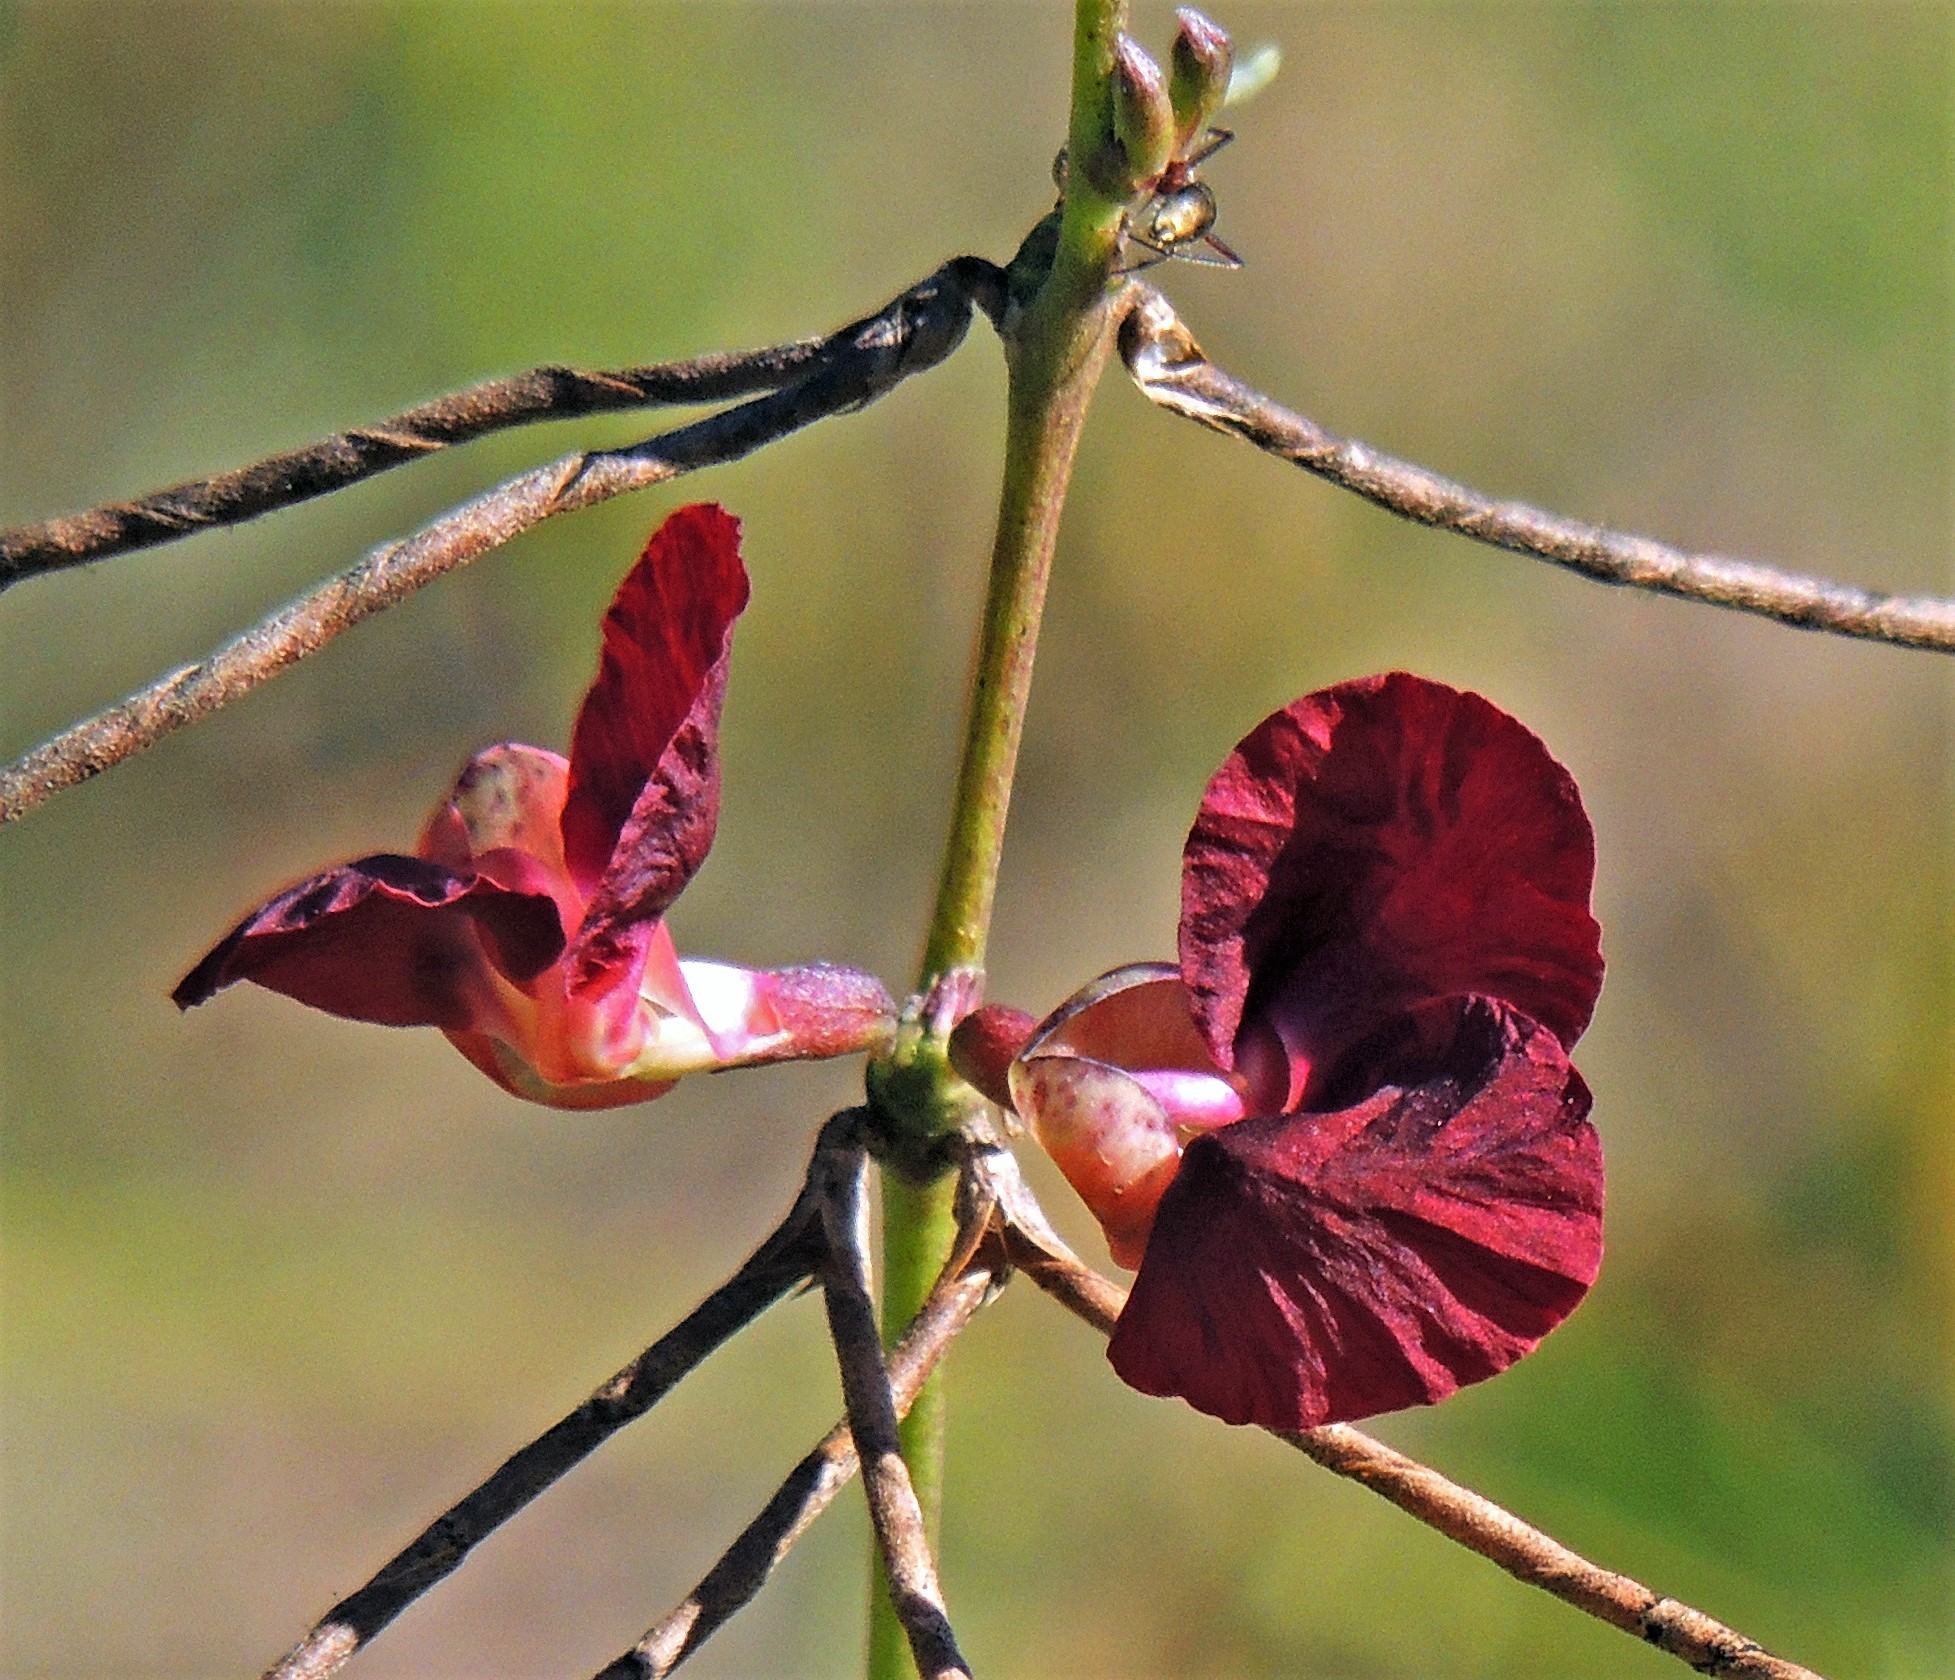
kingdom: Plantae
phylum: Tracheophyta
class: Magnoliopsida
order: Fabales
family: Fabaceae
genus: Macroptilium
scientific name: Macroptilium lathyroides
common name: Wild bushbean
